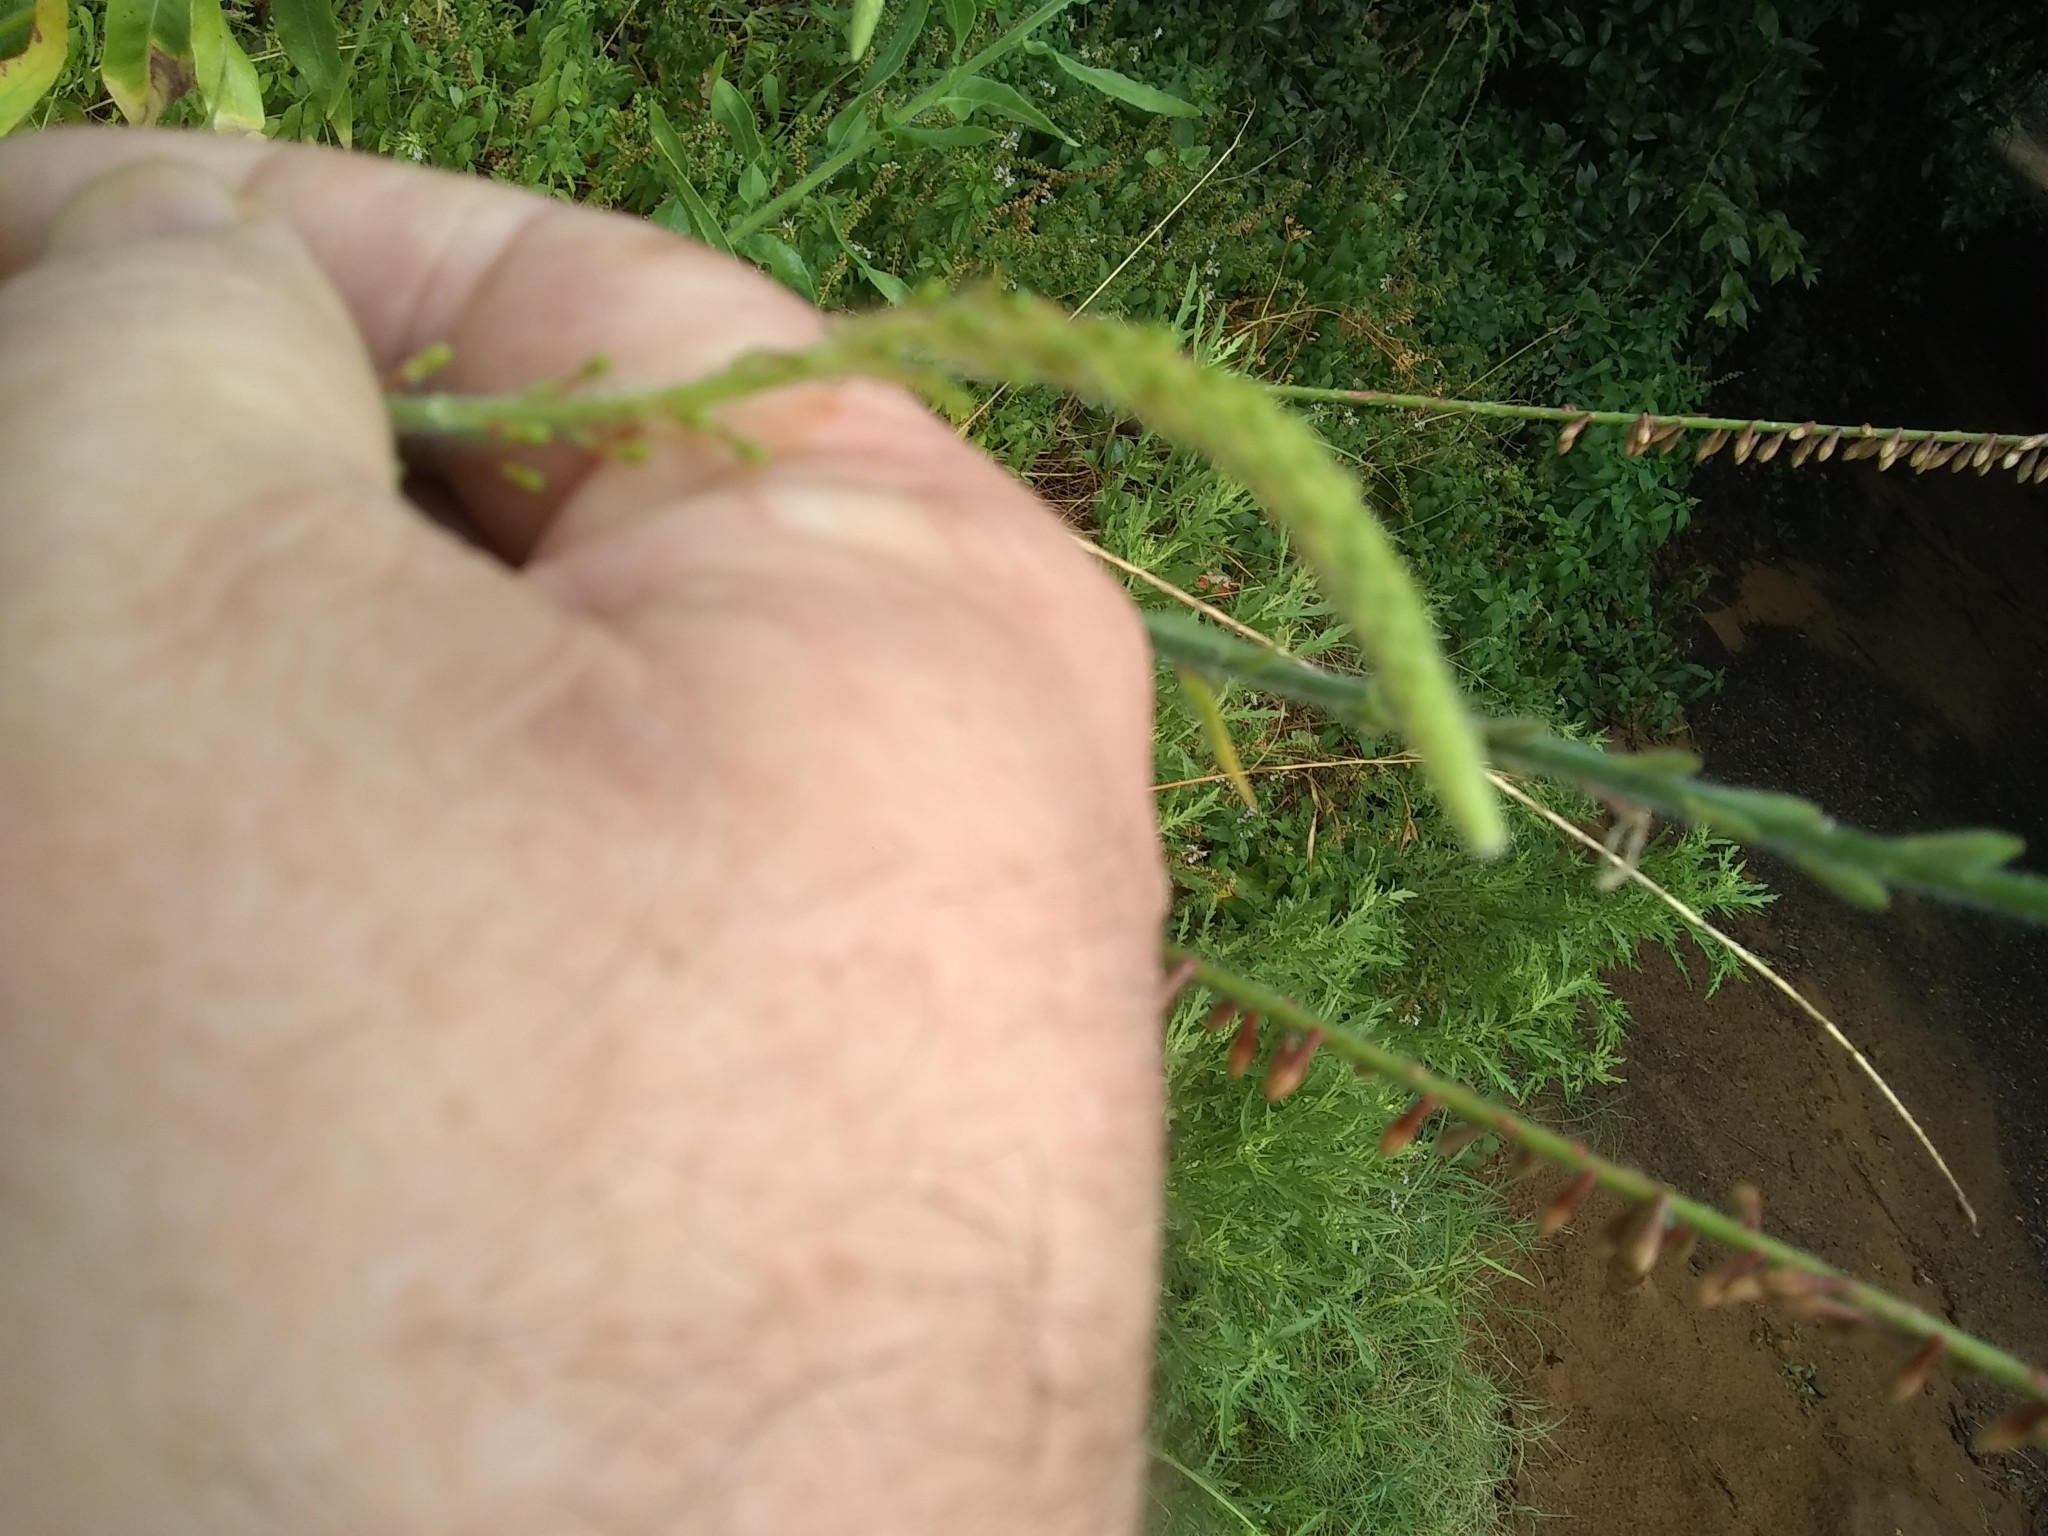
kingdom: Plantae
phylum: Tracheophyta
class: Magnoliopsida
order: Myrtales
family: Onagraceae
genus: Oenothera
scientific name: Oenothera curtiflora
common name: Velvetweed
